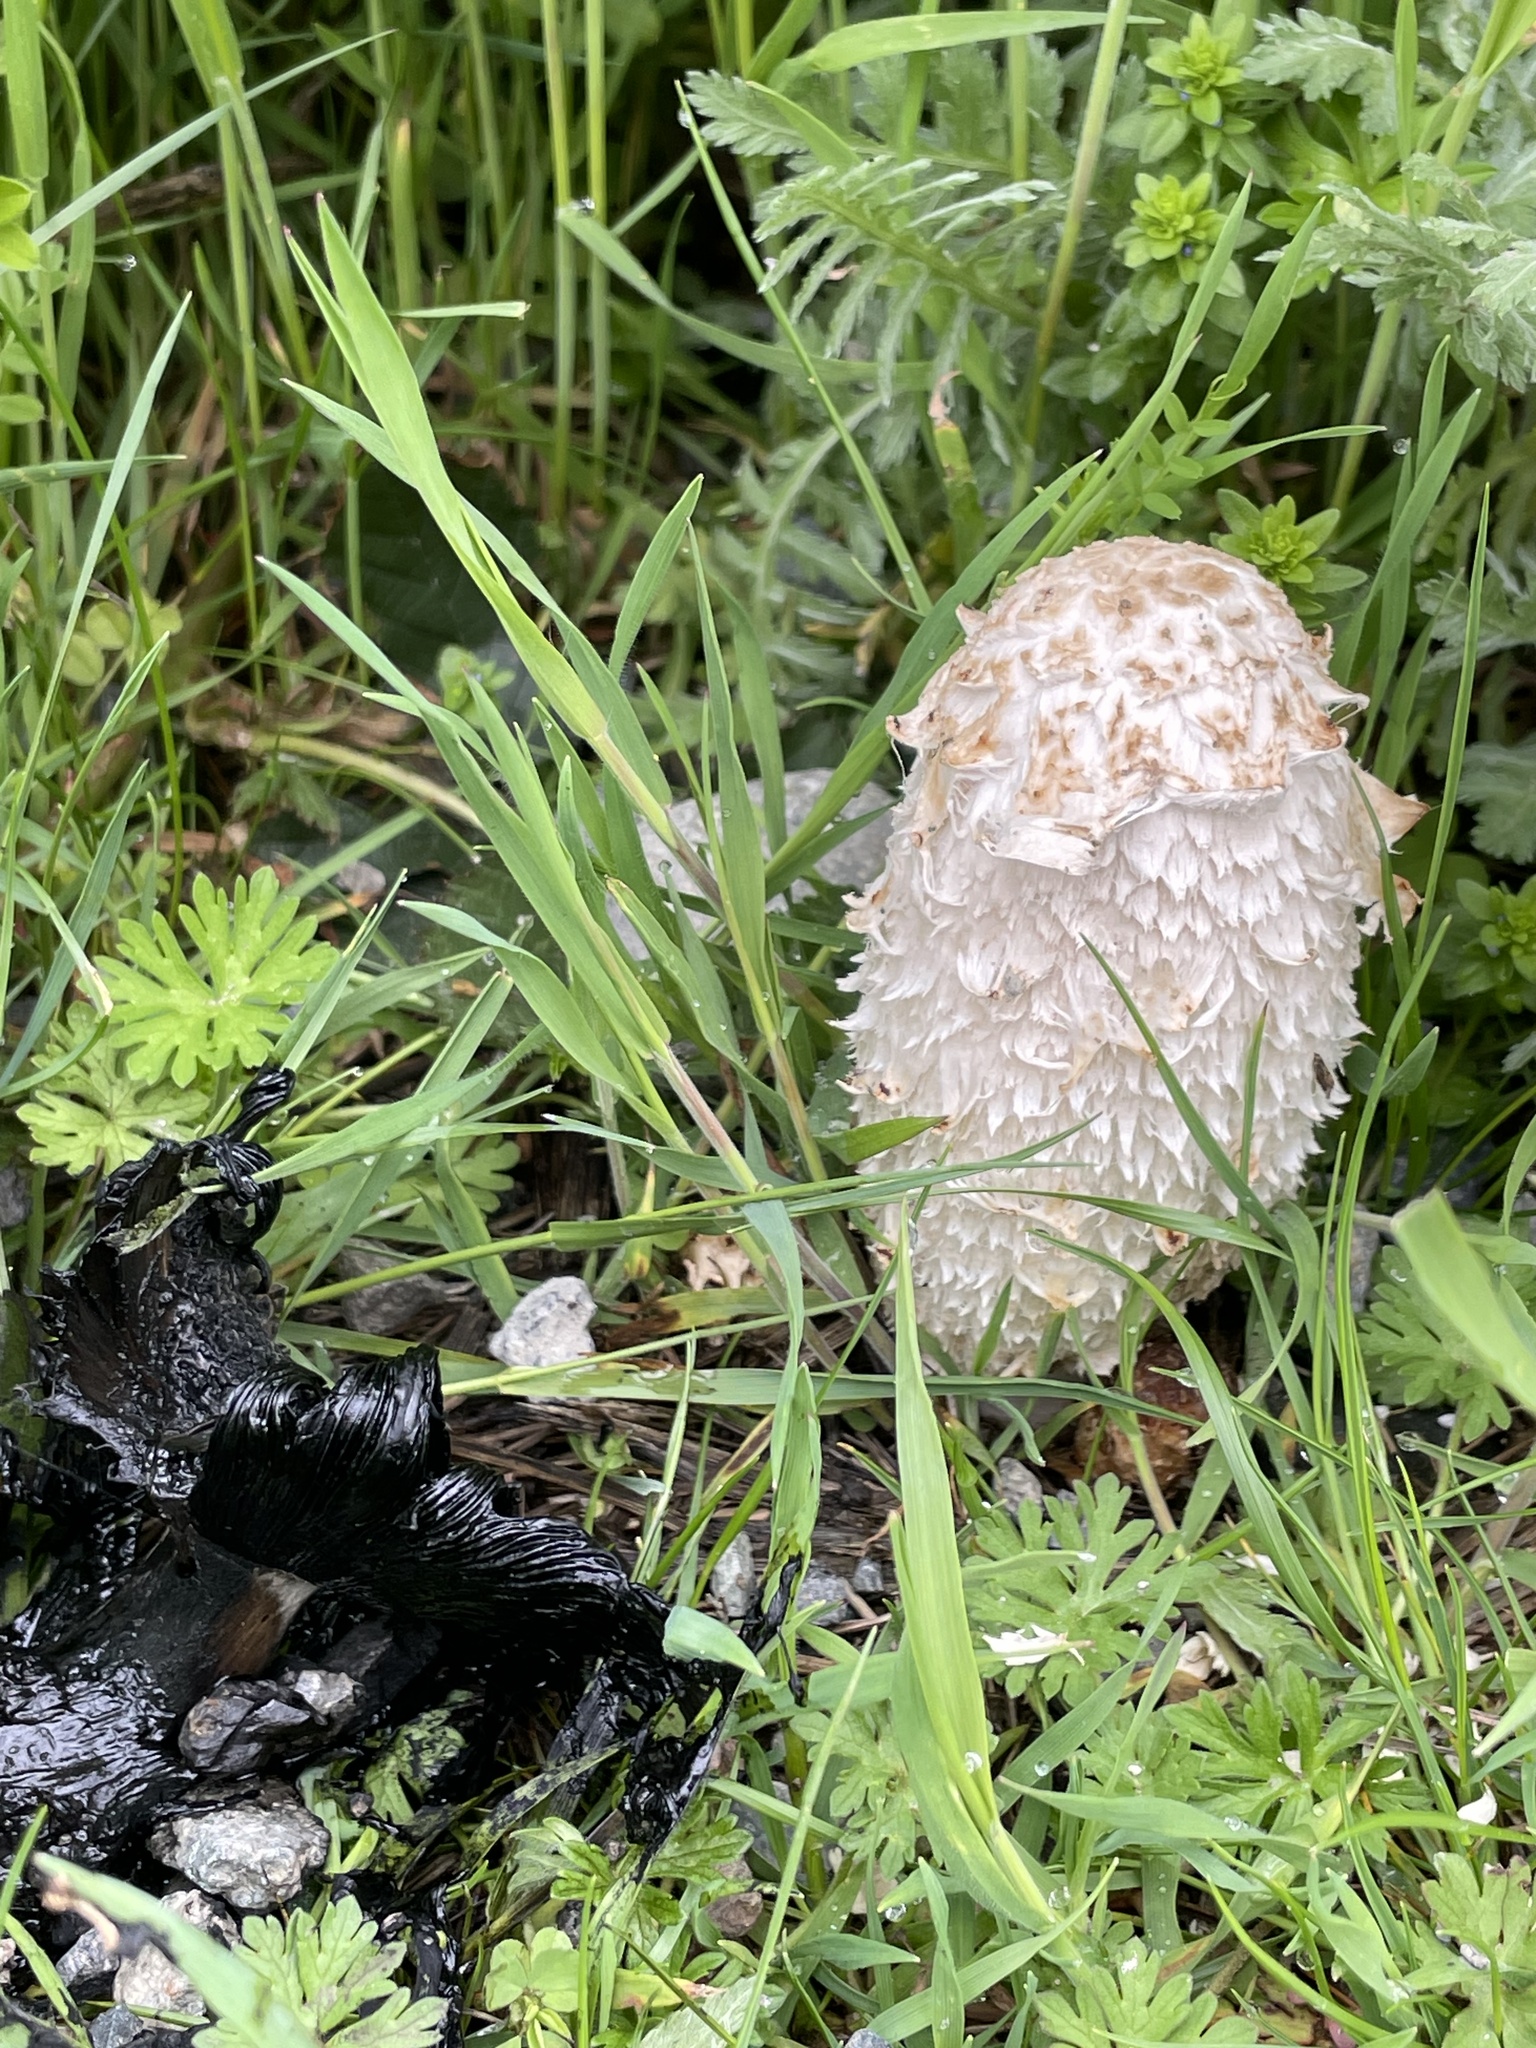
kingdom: Fungi
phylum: Basidiomycota
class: Agaricomycetes
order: Agaricales
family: Agaricaceae
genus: Coprinus
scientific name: Coprinus comatus
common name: Lawyer's wig
